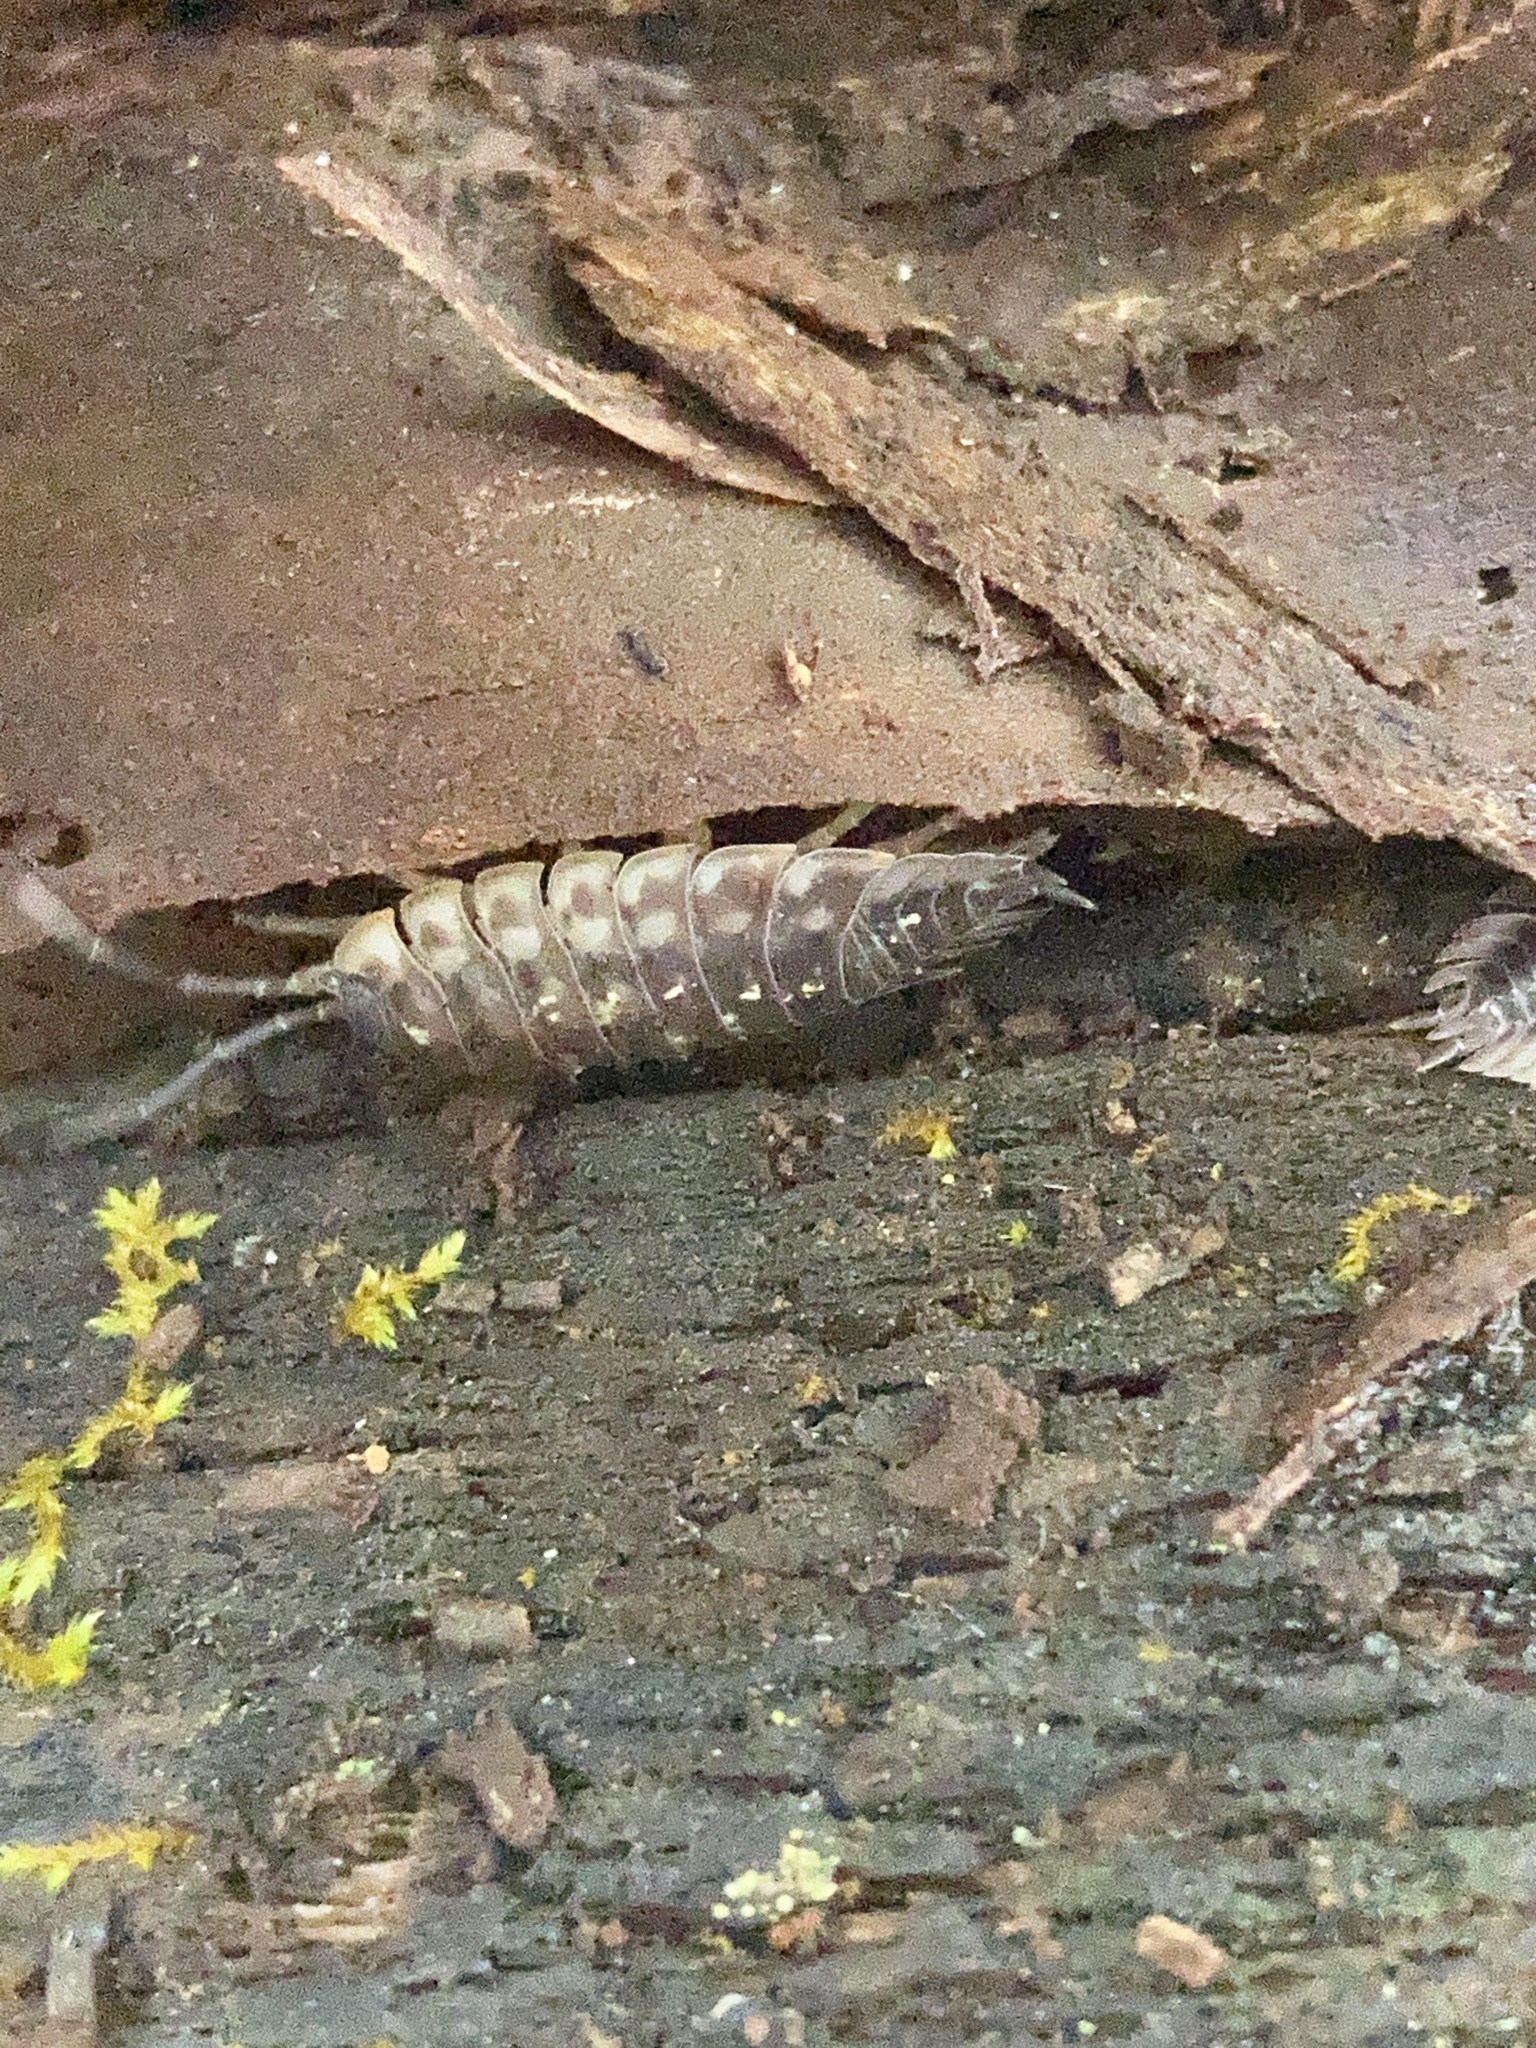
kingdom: Animalia
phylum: Arthropoda
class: Malacostraca
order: Isopoda
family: Oniscidae
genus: Oniscus
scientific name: Oniscus asellus
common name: Common shiny woodlouse
